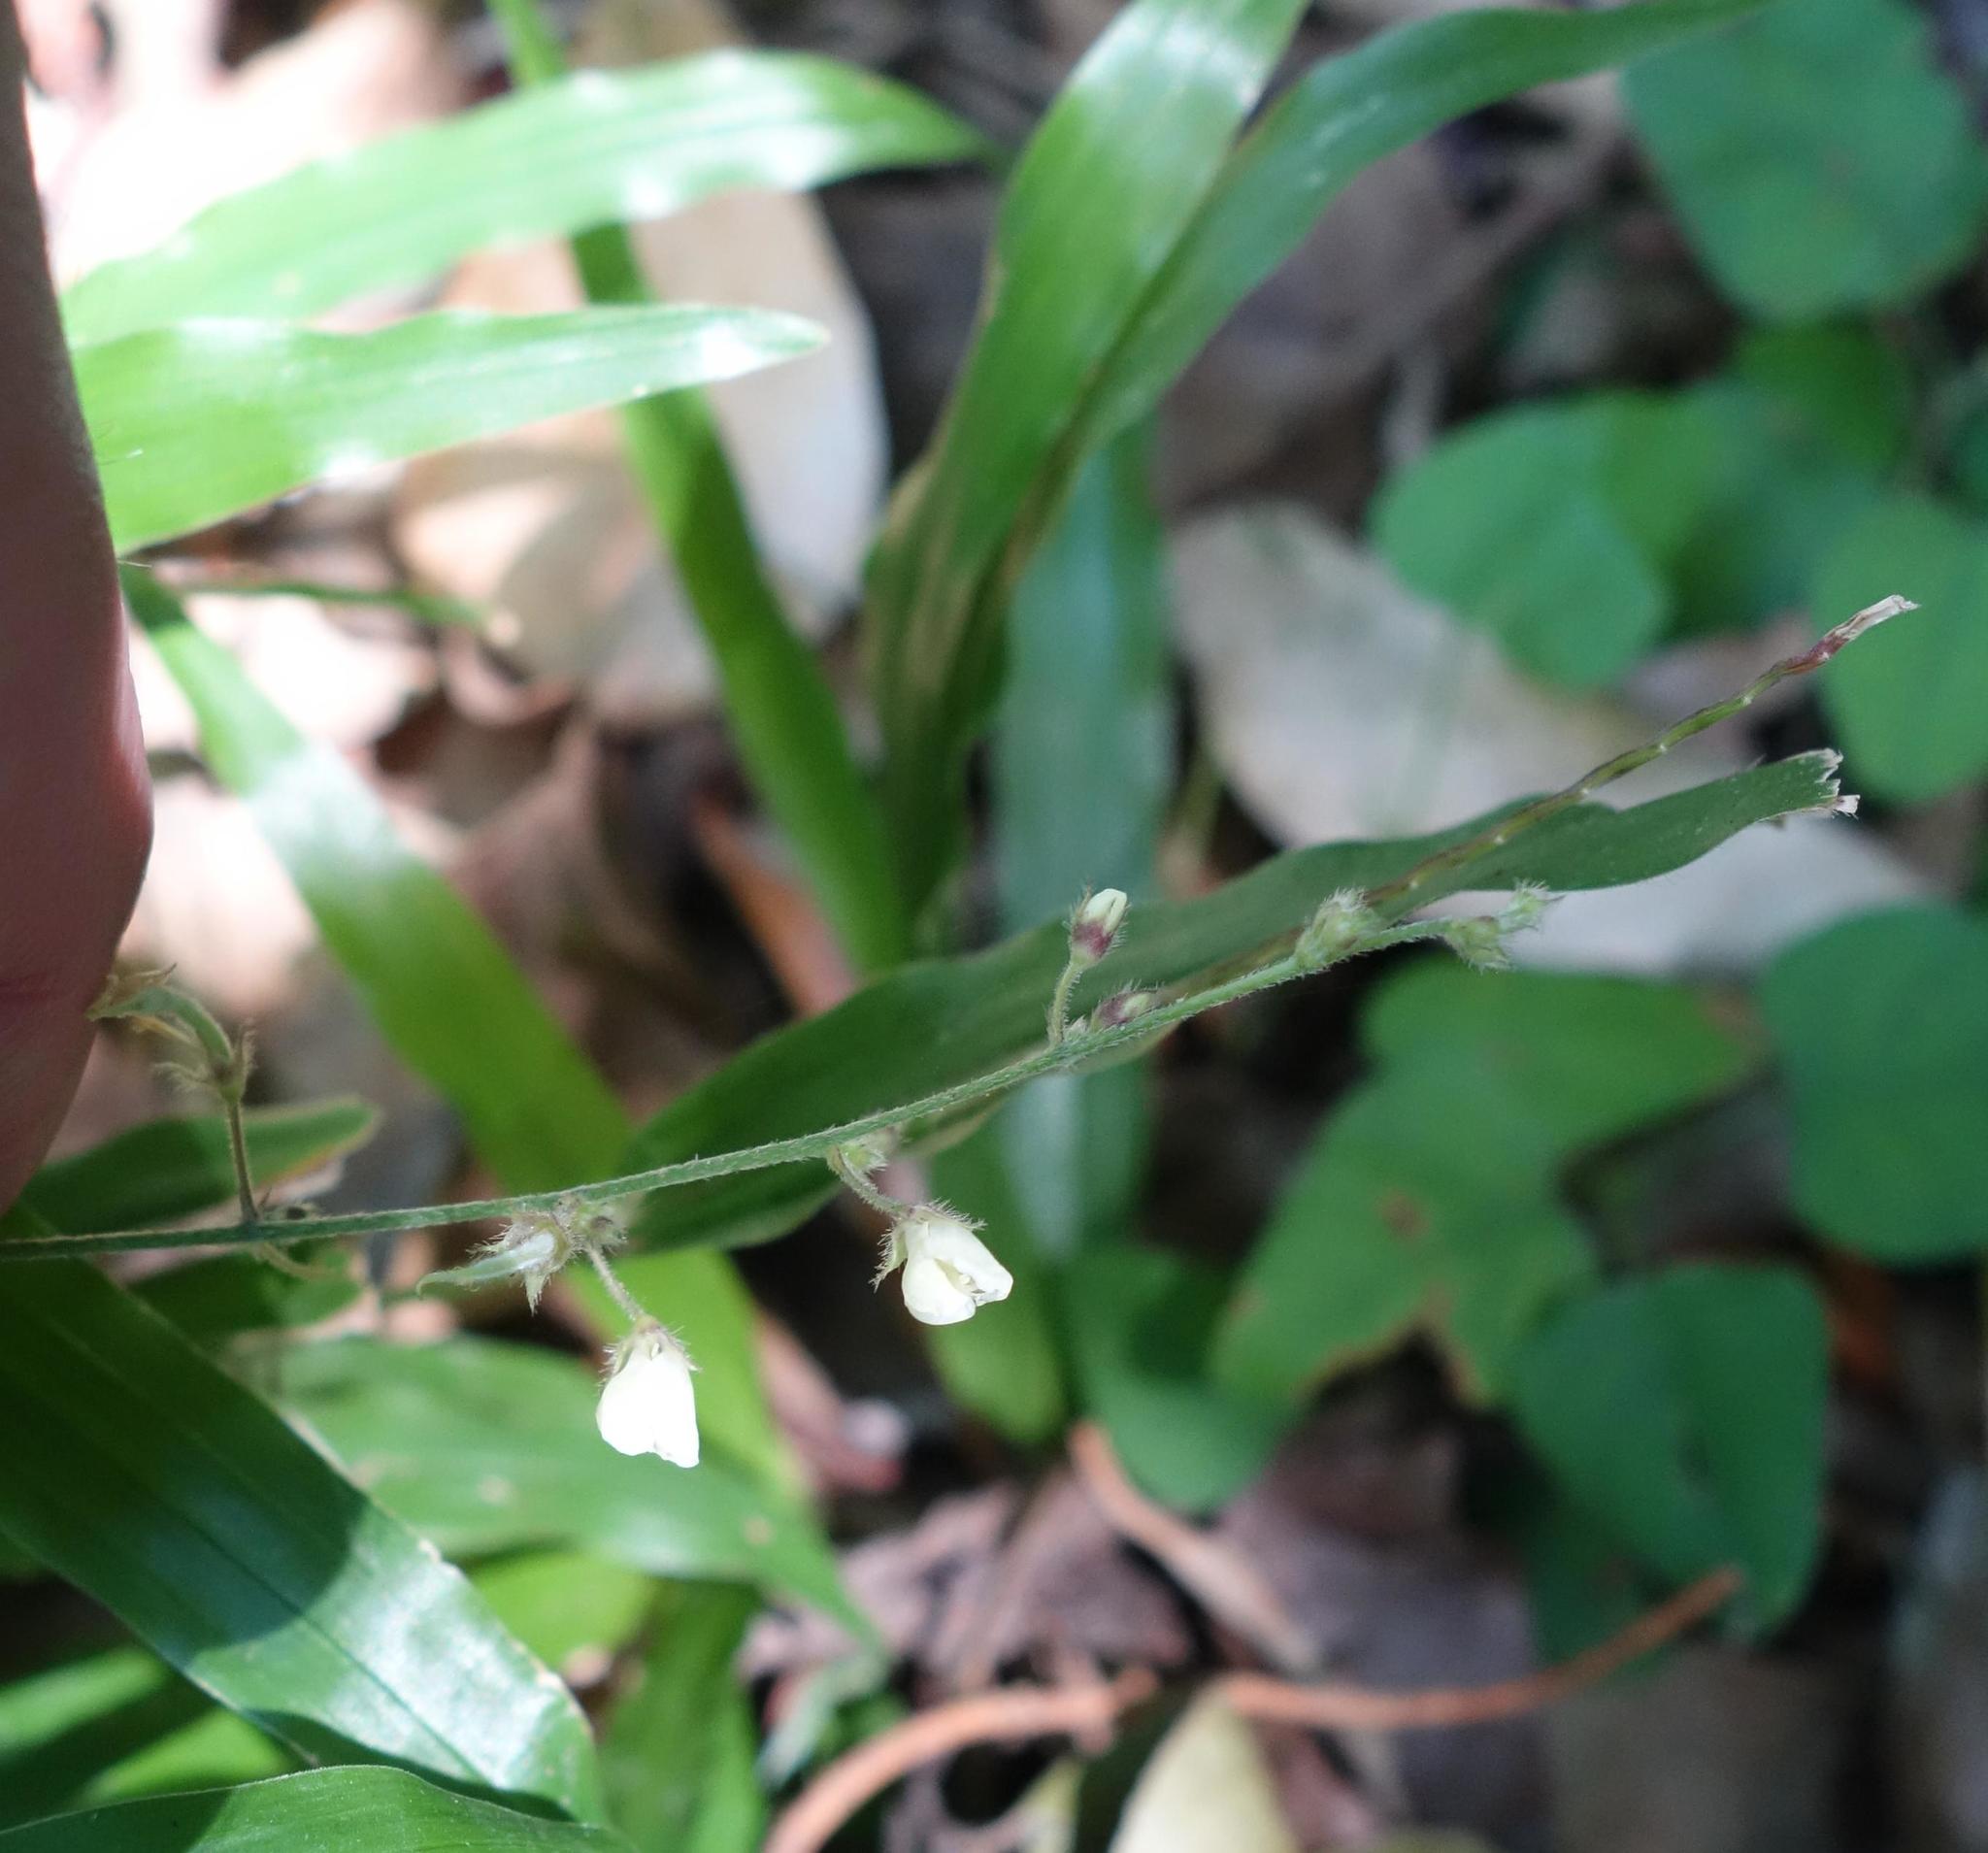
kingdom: Plantae
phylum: Tracheophyta
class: Magnoliopsida
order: Fabales
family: Fabaceae
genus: Sohmaea
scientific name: Sohmaea gracillima
